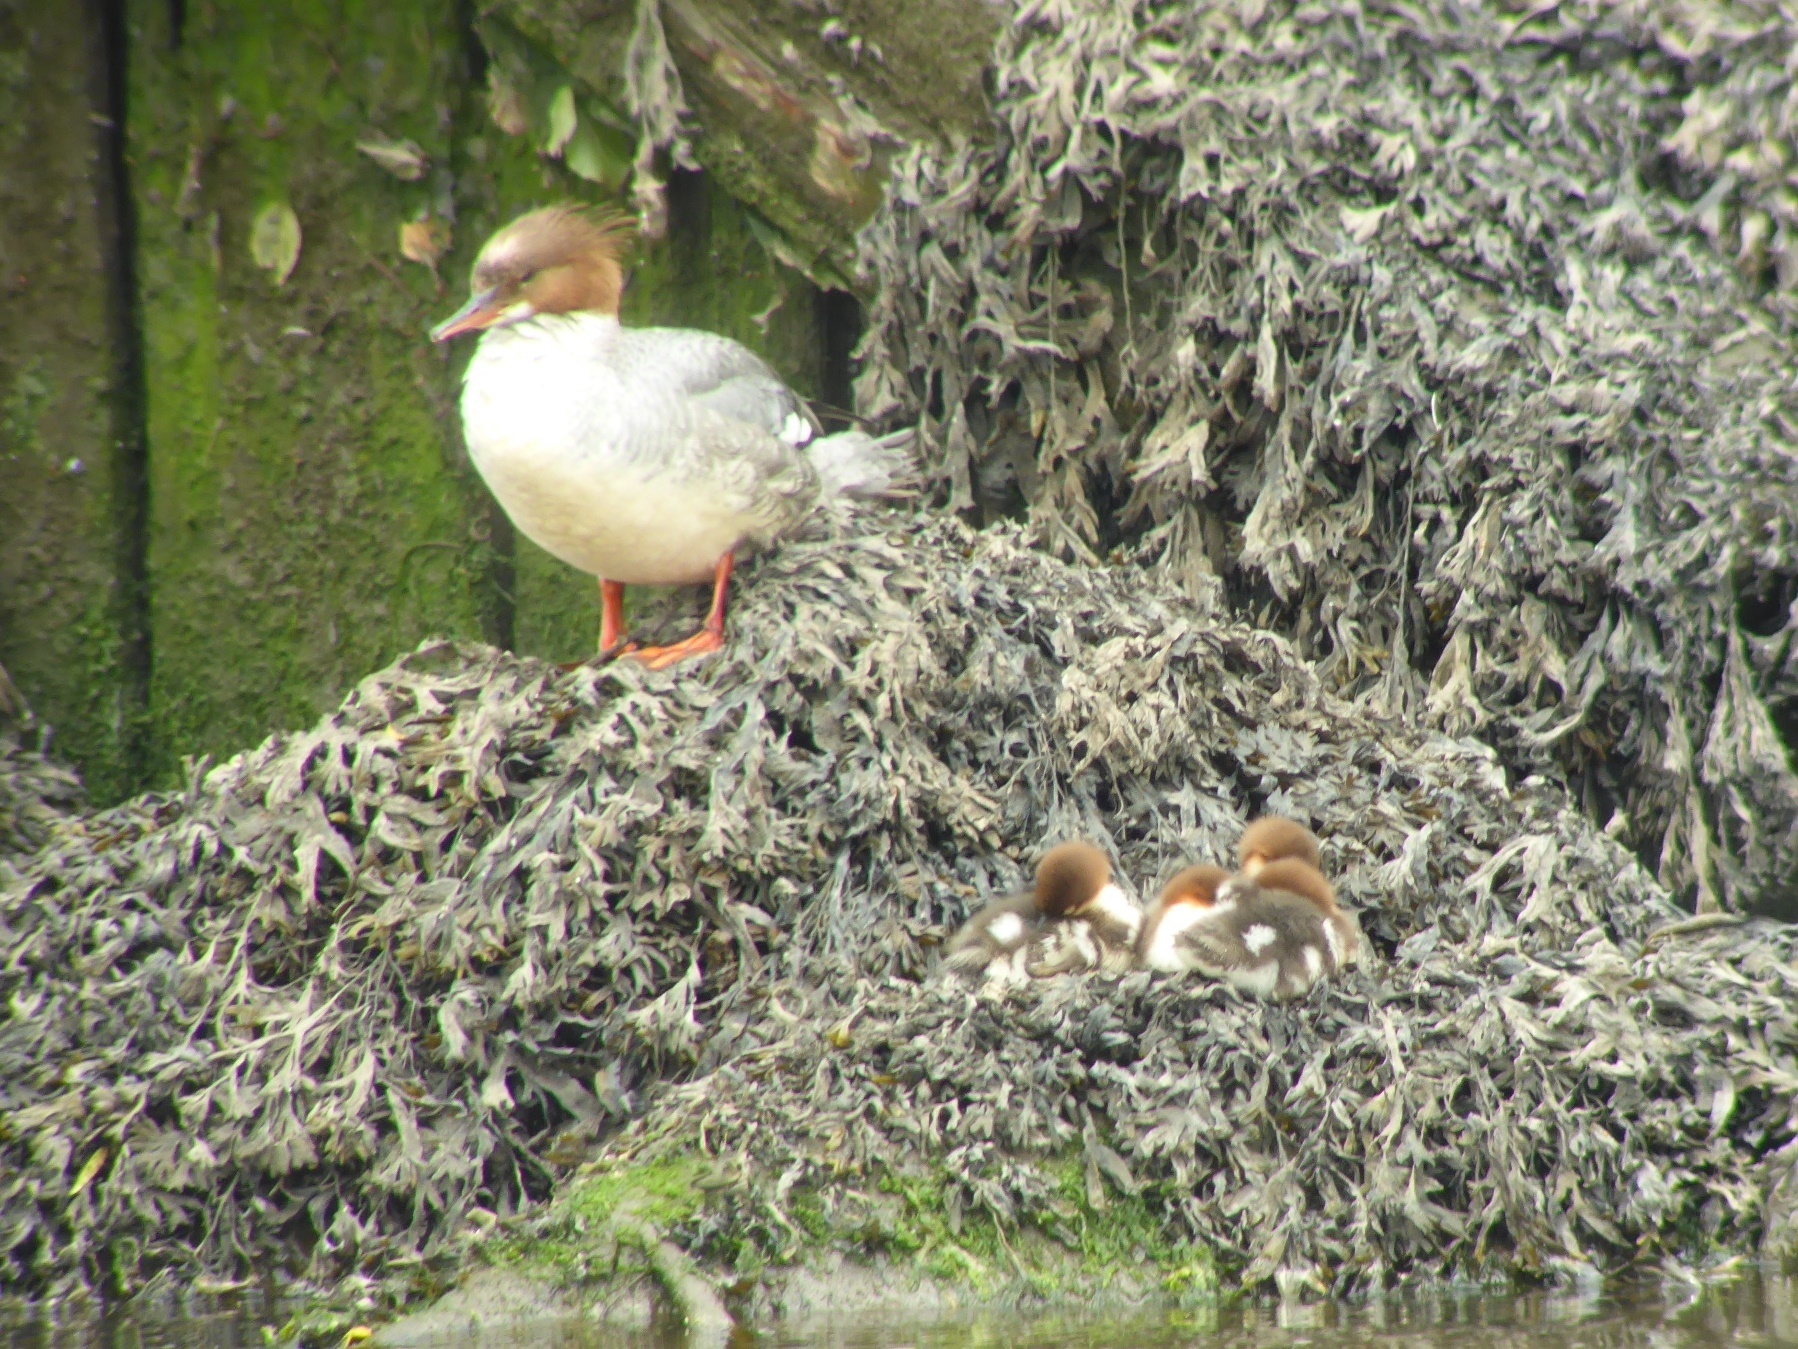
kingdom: Animalia
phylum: Chordata
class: Aves
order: Anseriformes
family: Anatidae
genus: Mergus
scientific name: Mergus merganser
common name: Common merganser
